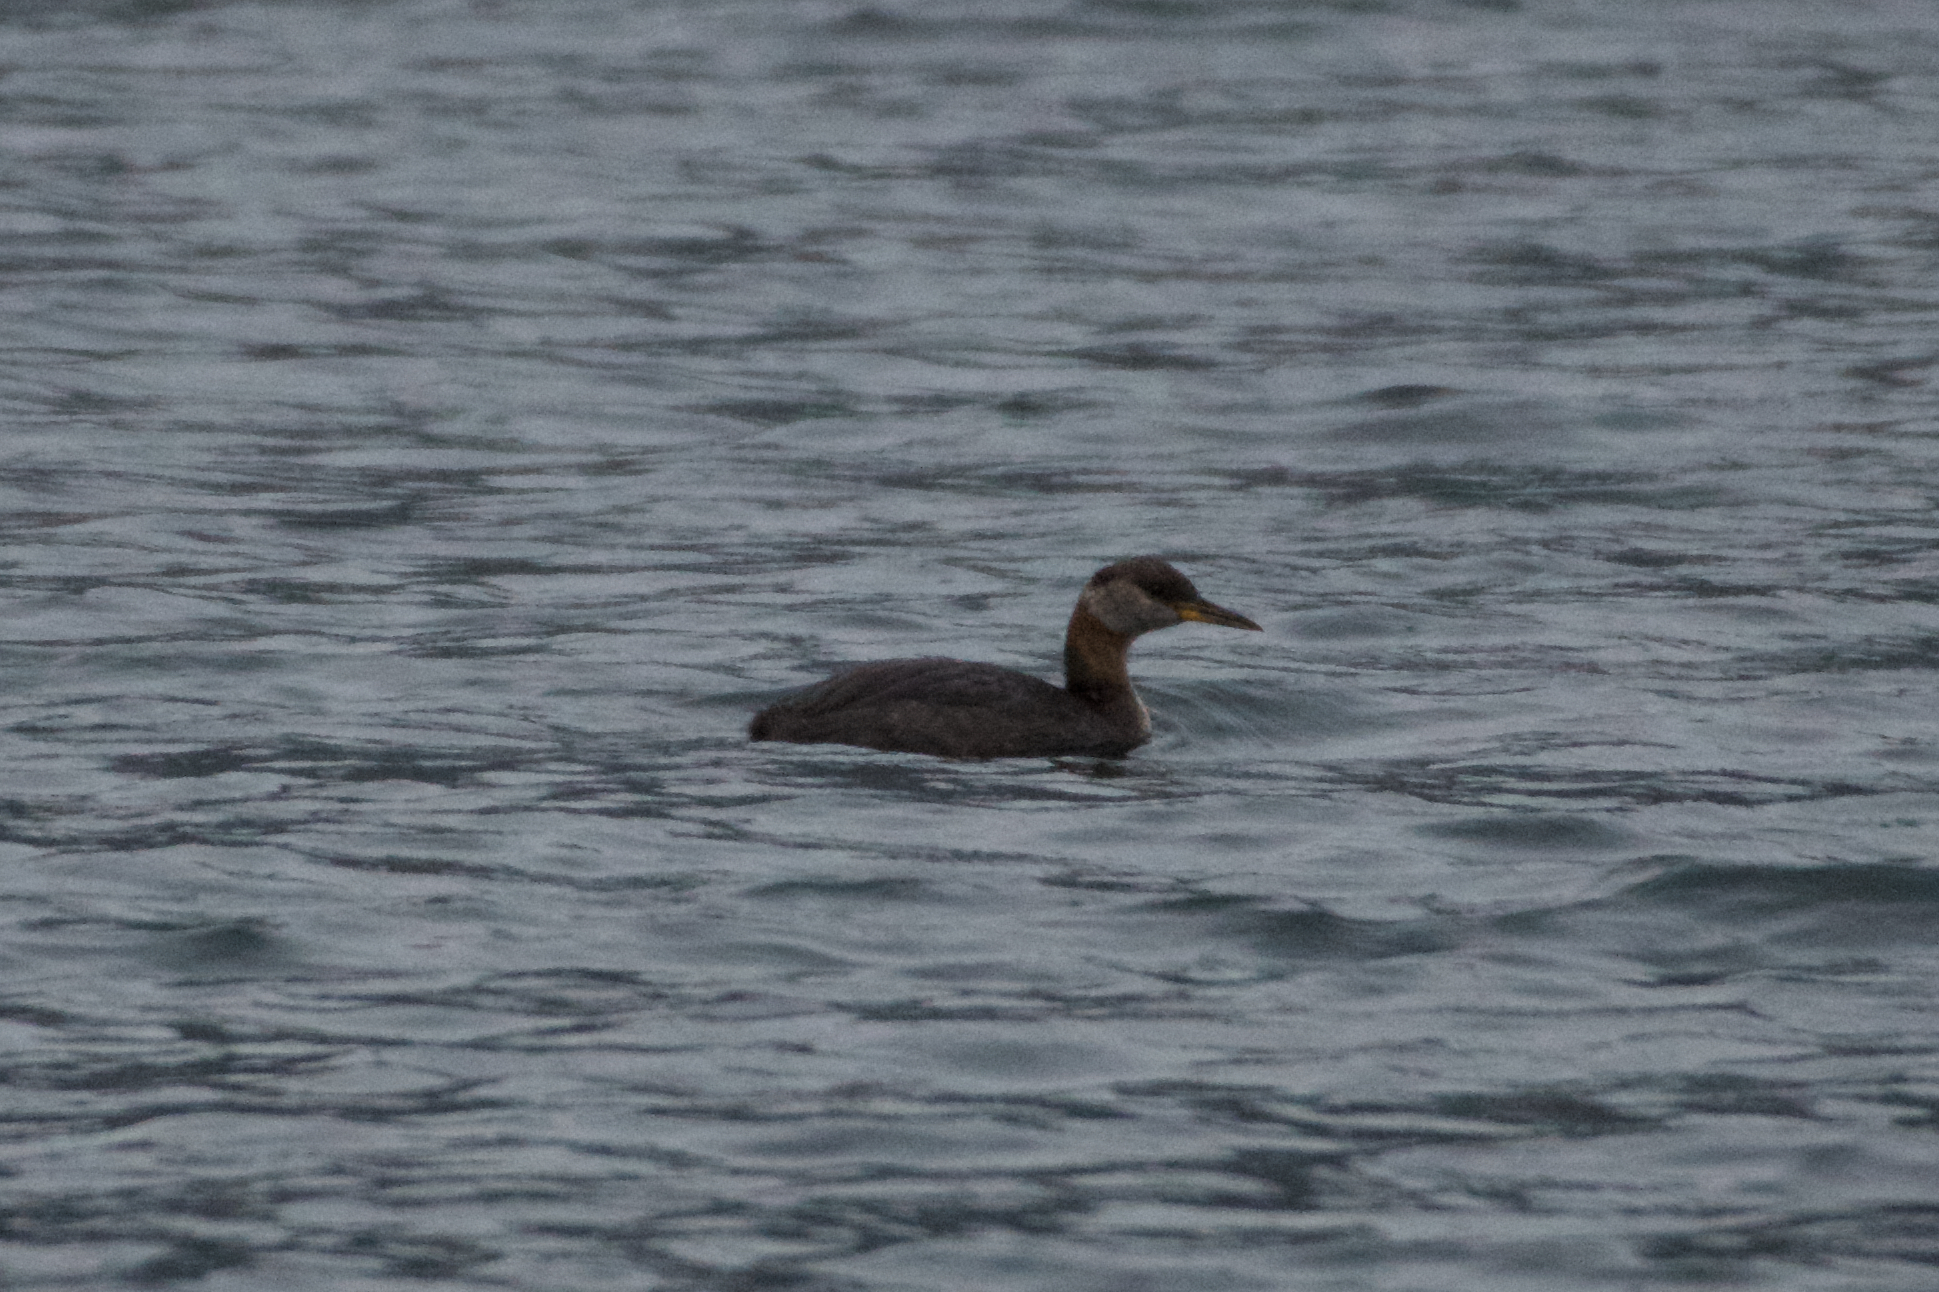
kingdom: Animalia
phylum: Chordata
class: Aves
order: Podicipediformes
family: Podicipedidae
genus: Podiceps
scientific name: Podiceps grisegena
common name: Red-necked grebe
